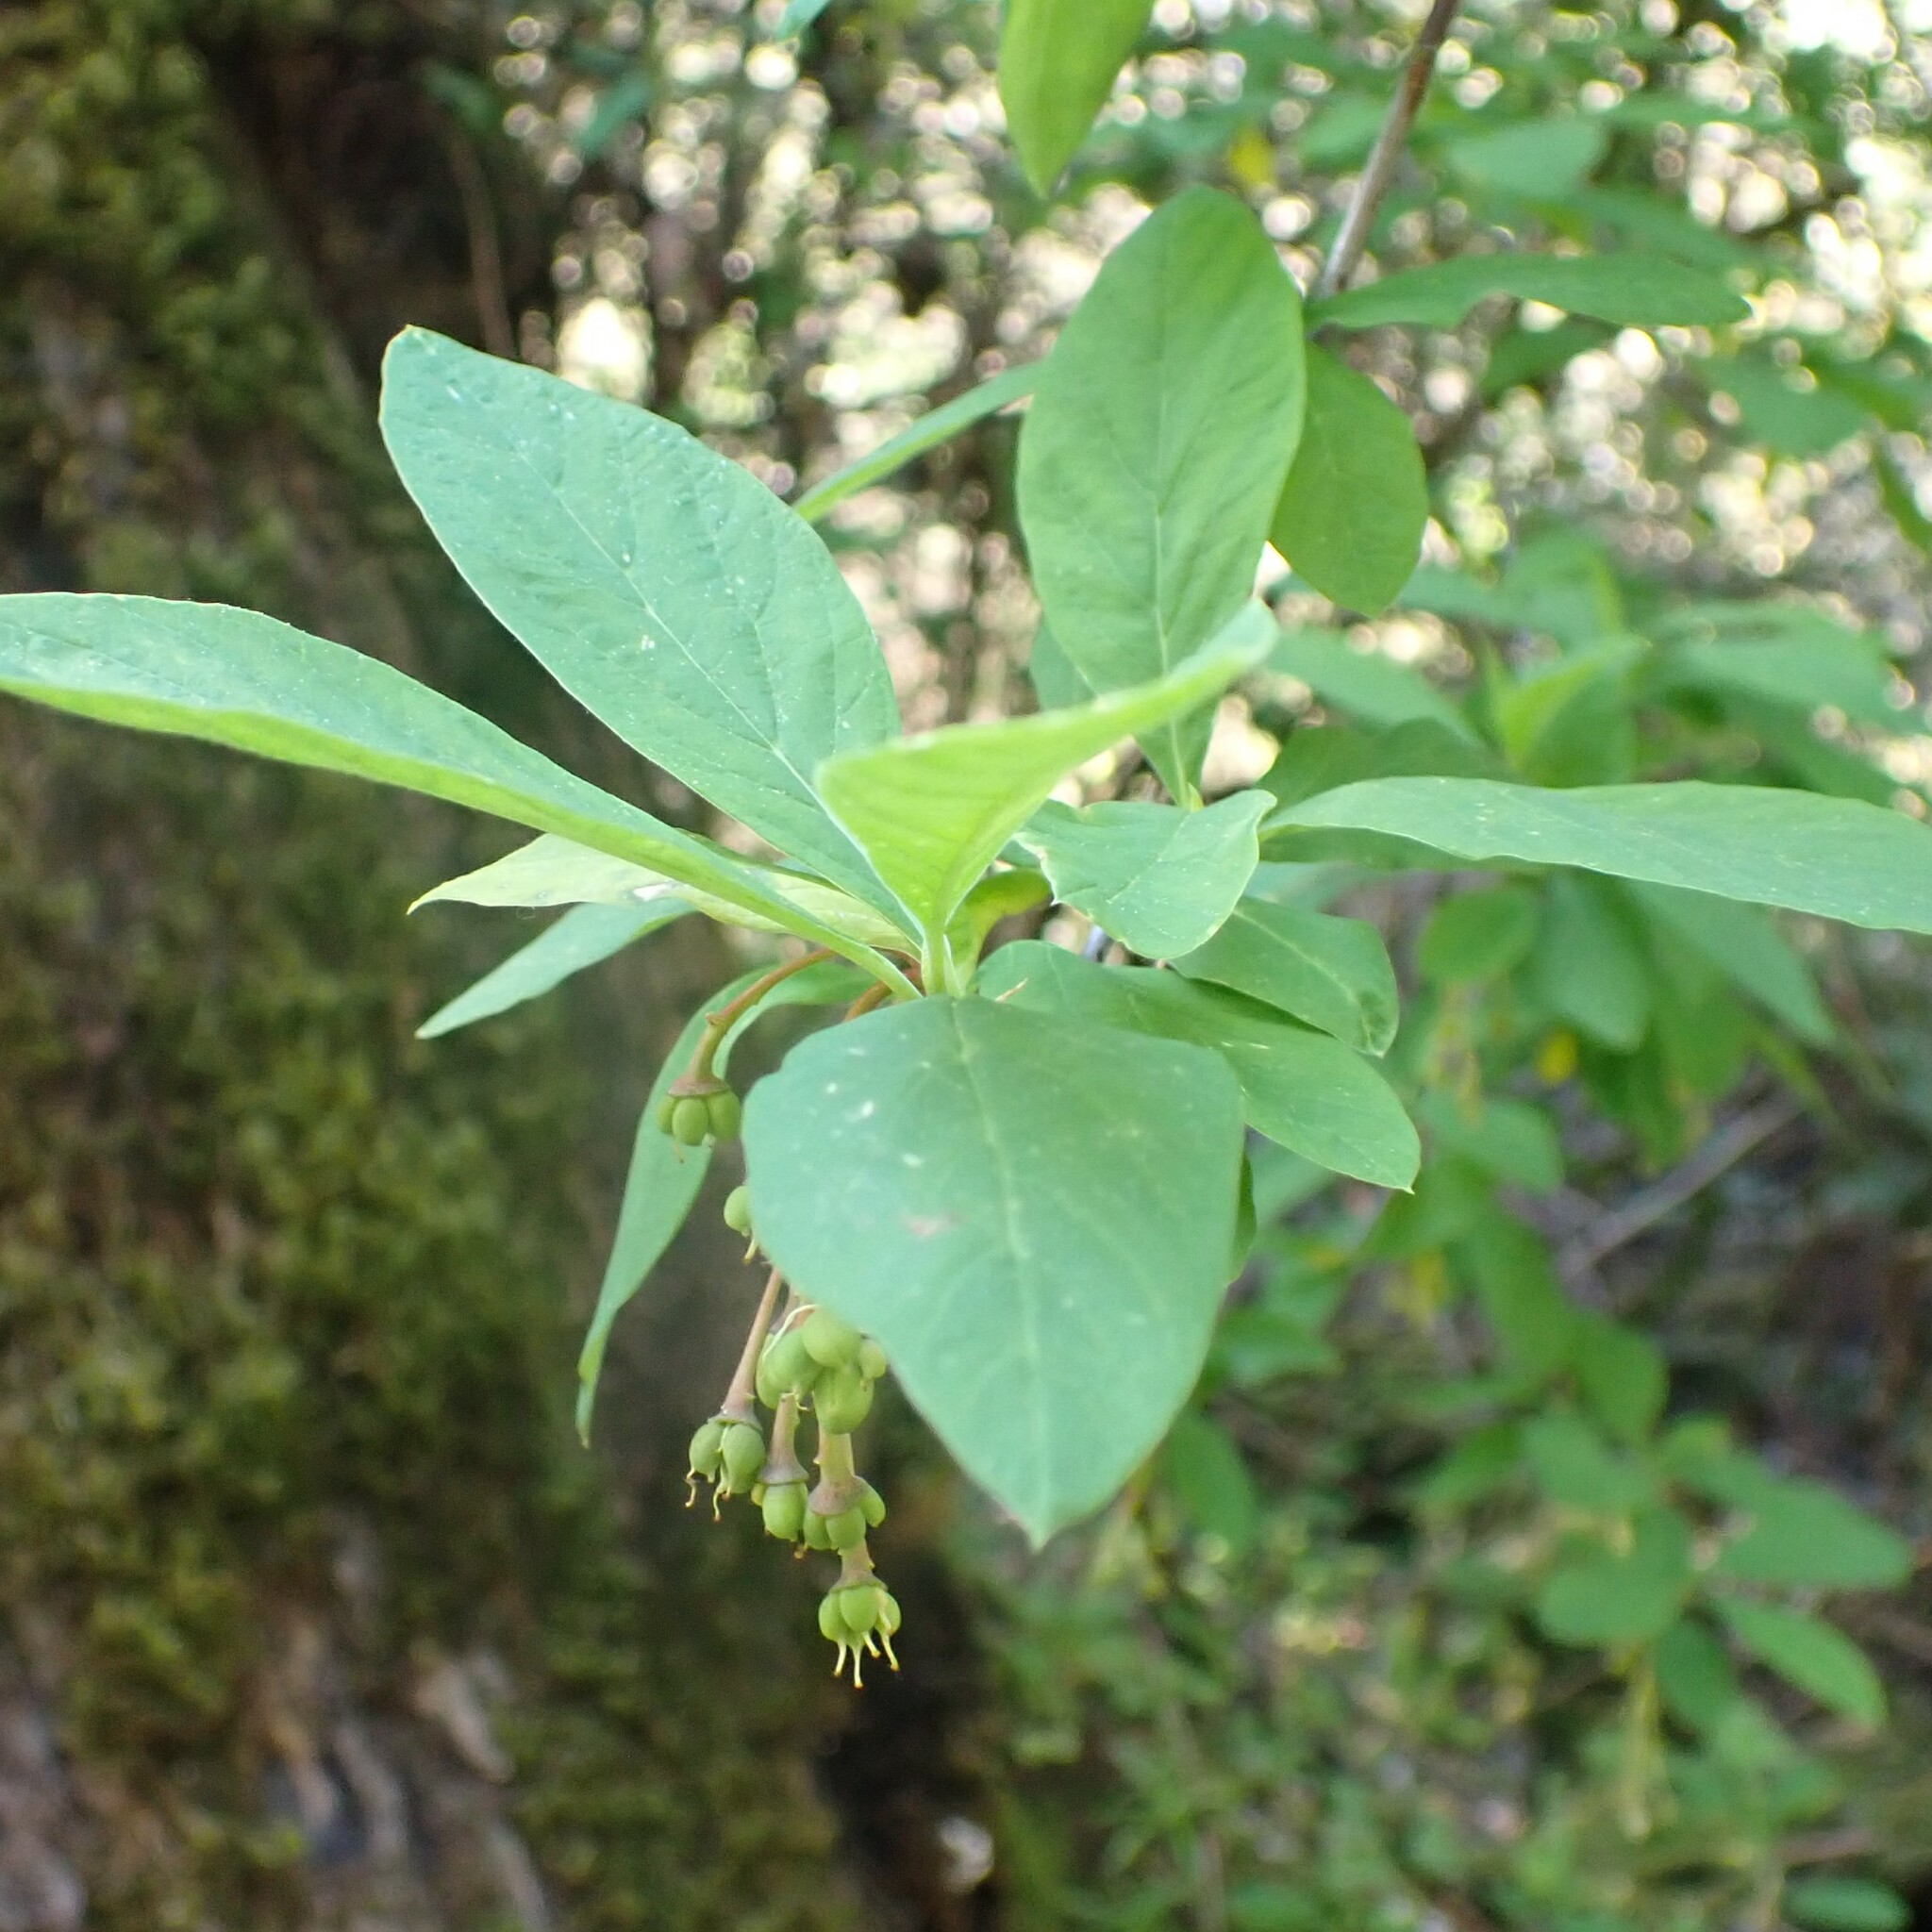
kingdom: Plantae
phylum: Tracheophyta
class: Magnoliopsida
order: Rosales
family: Rosaceae
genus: Oemleria
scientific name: Oemleria cerasiformis
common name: Osoberry
